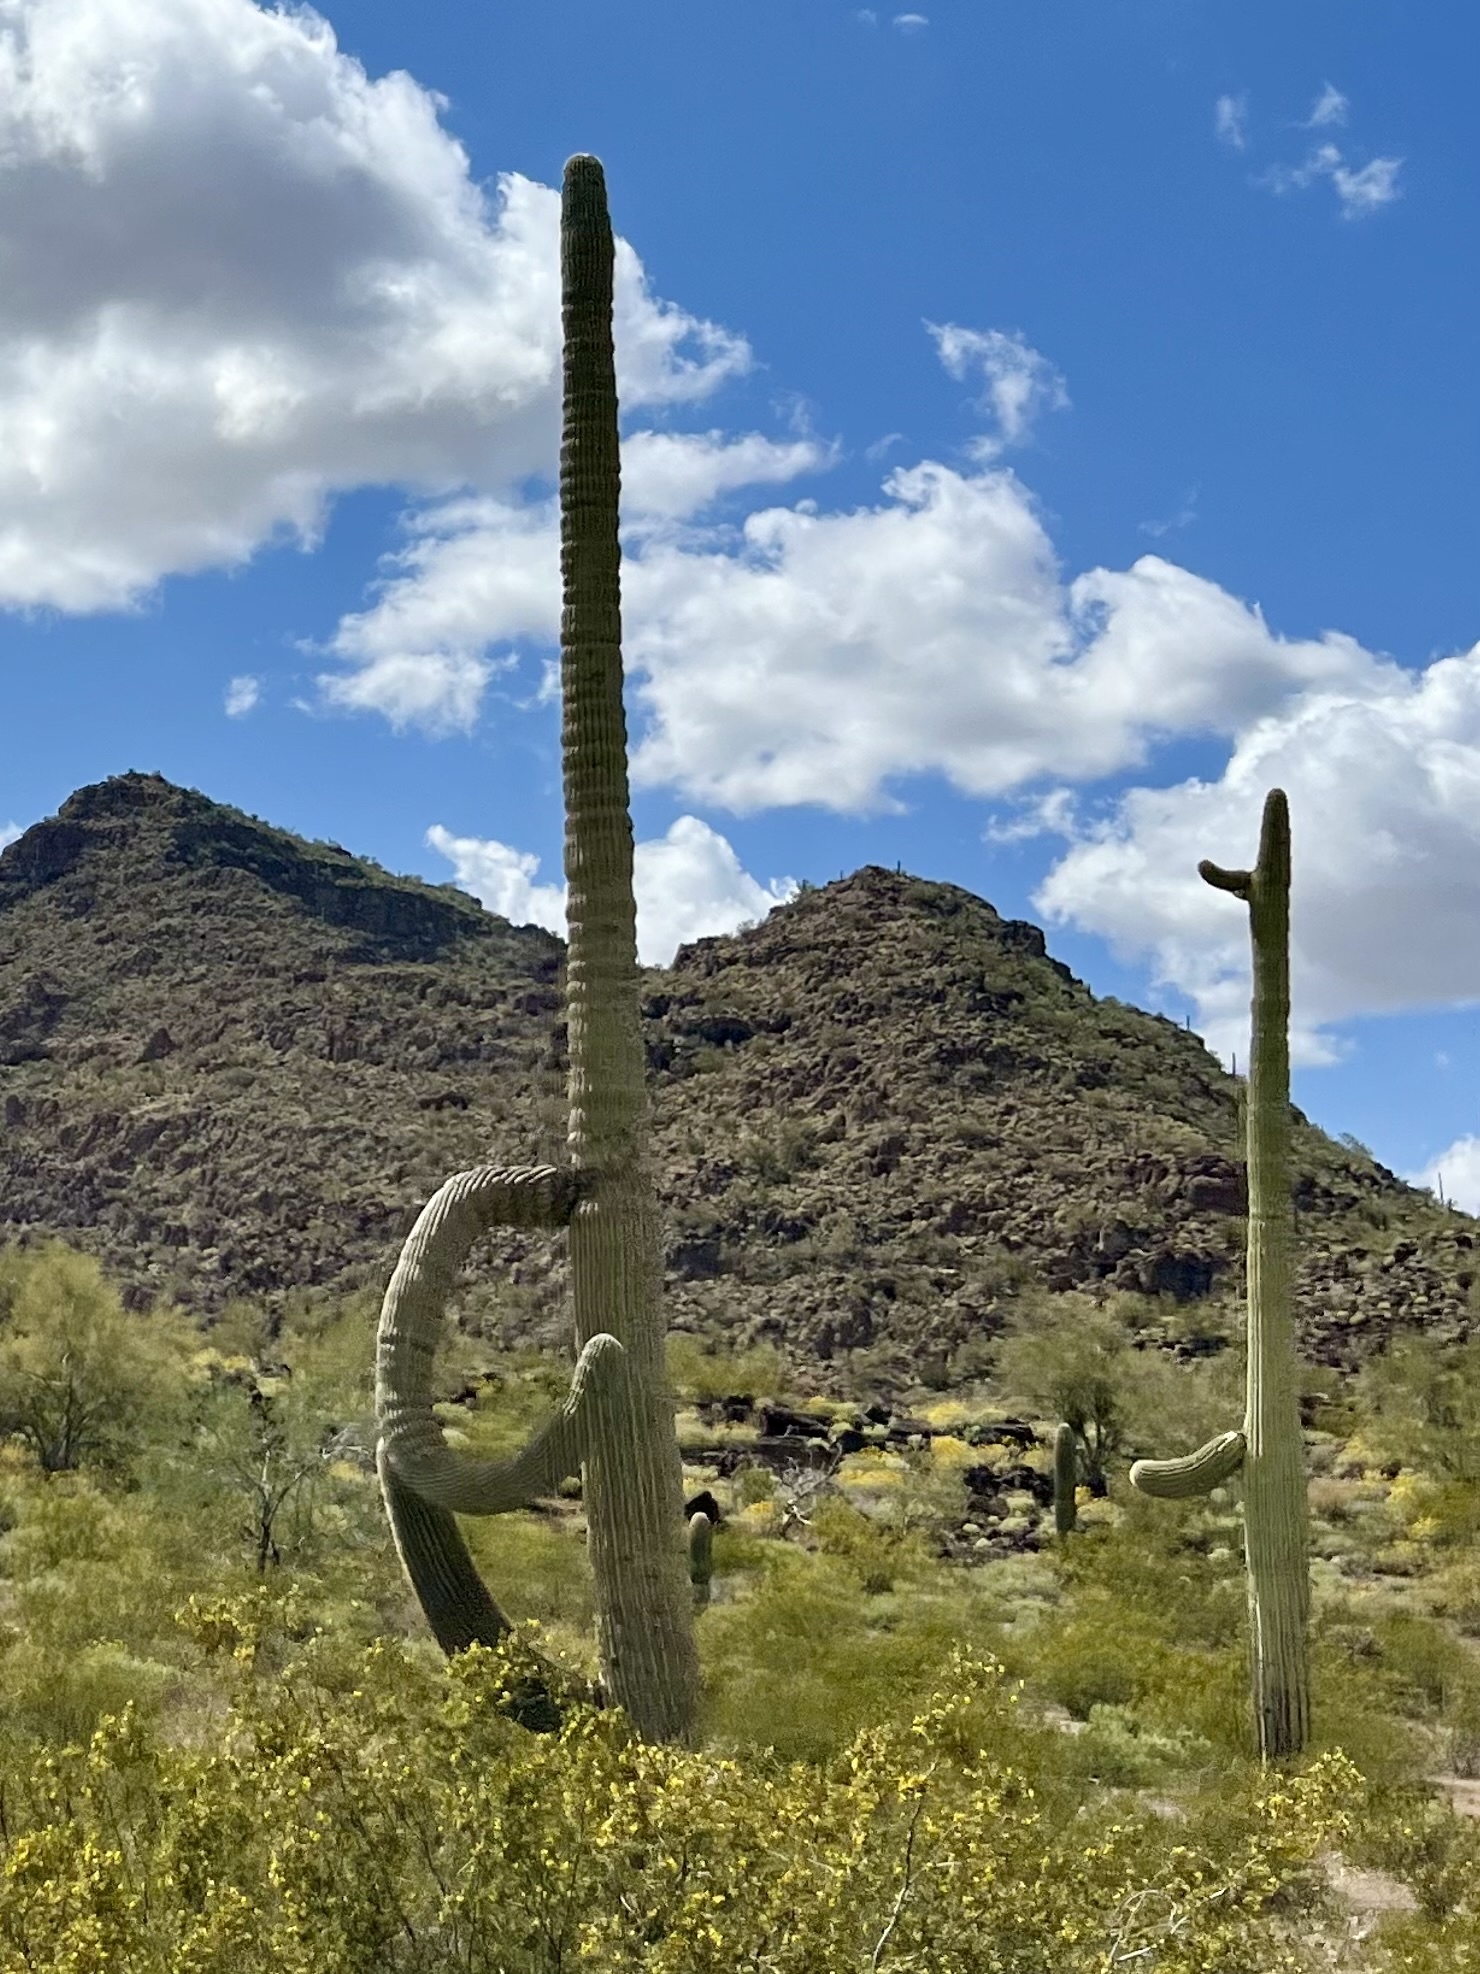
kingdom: Plantae
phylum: Tracheophyta
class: Magnoliopsida
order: Caryophyllales
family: Cactaceae
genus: Carnegiea
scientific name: Carnegiea gigantea
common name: Saguaro
